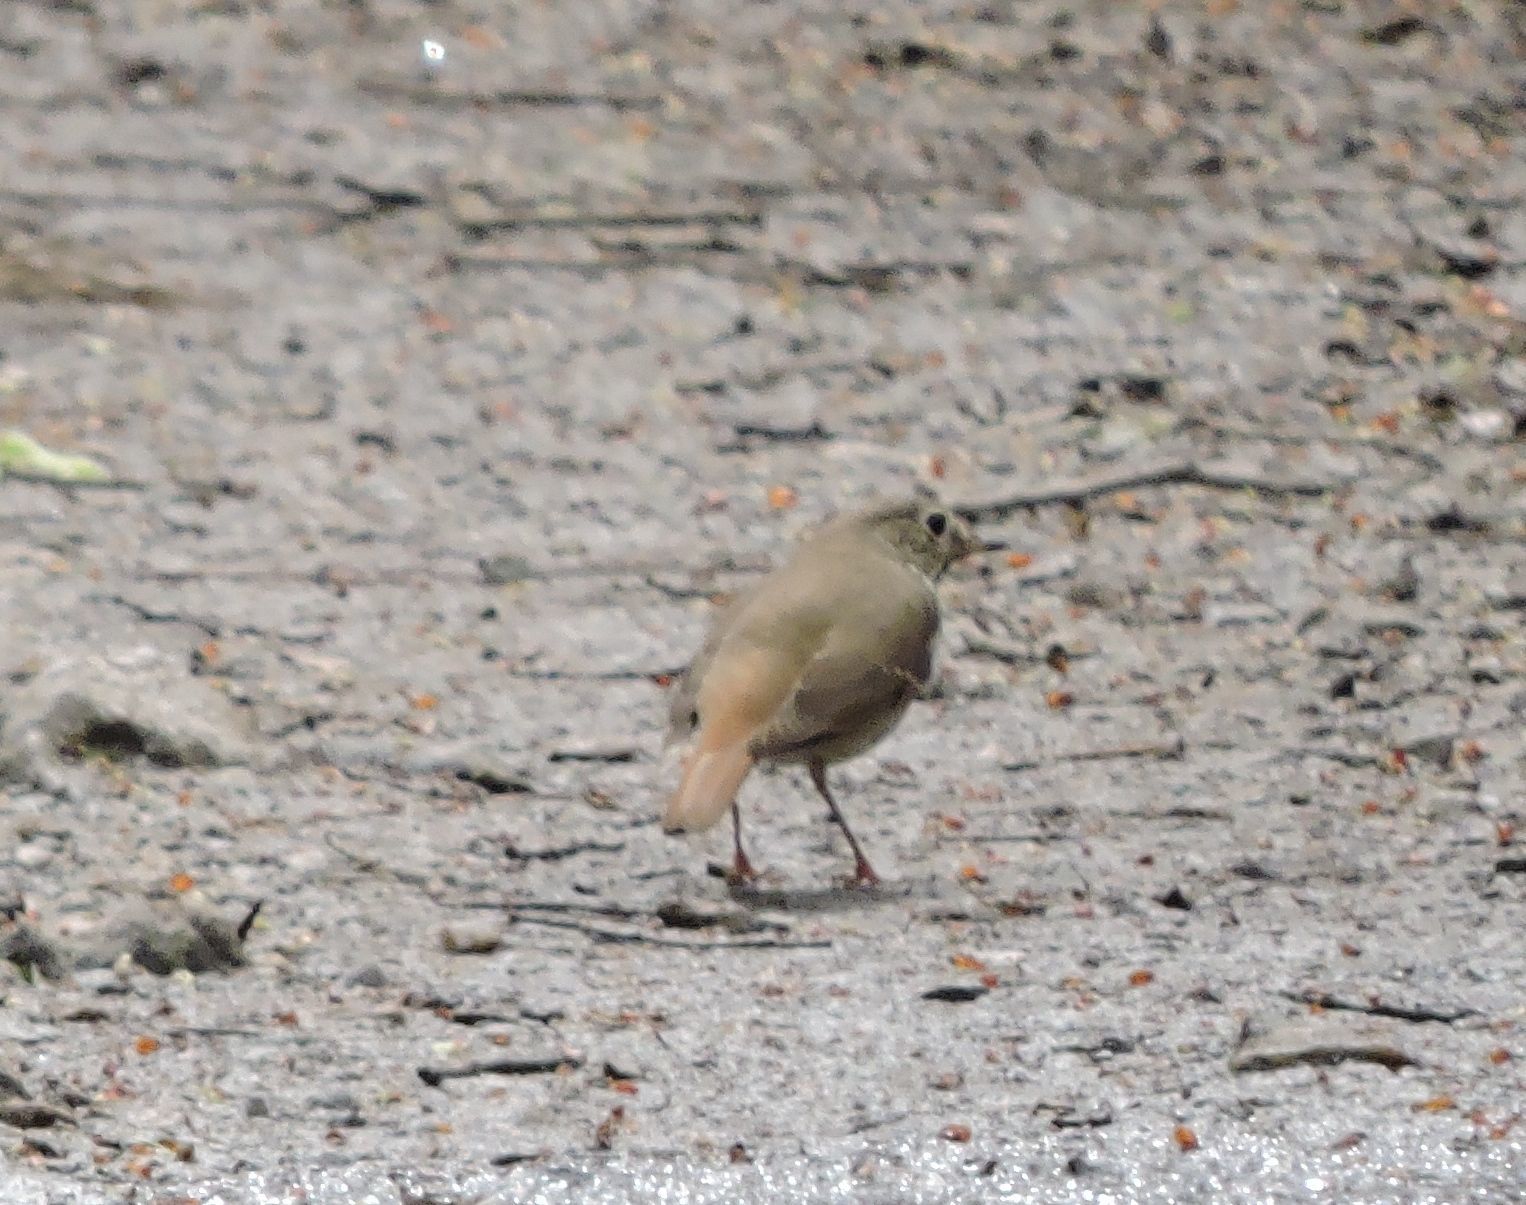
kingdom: Animalia
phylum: Chordata
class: Aves
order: Passeriformes
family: Turdidae
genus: Catharus
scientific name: Catharus guttatus
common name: Hermit thrush
